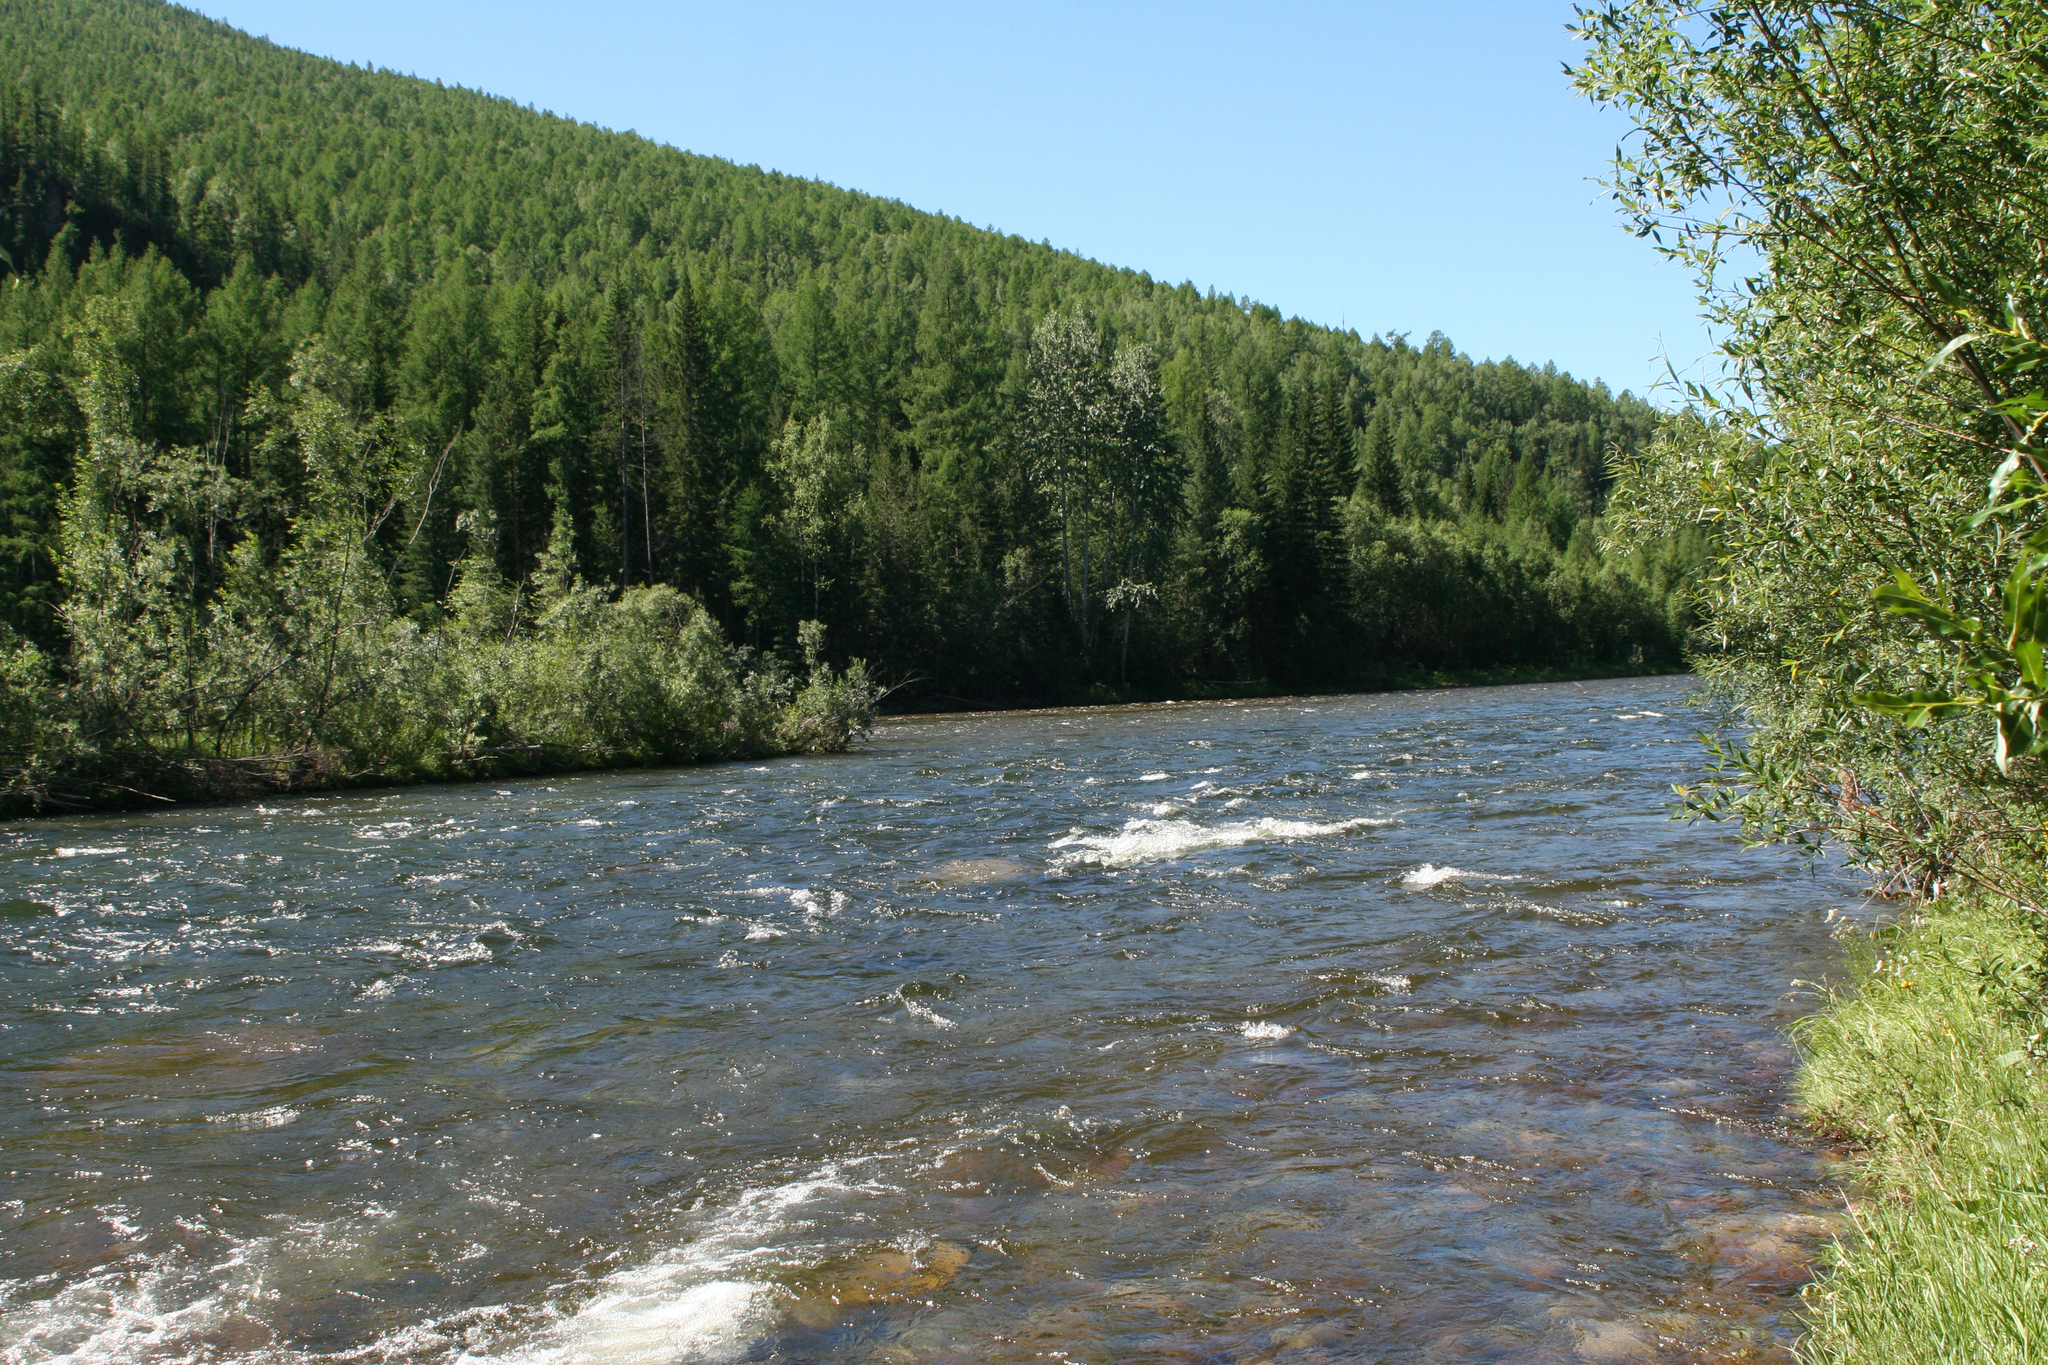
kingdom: Plantae
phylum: Tracheophyta
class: Pinopsida
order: Pinales
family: Pinaceae
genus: Picea
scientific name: Picea obovata
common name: Siberian spruce
